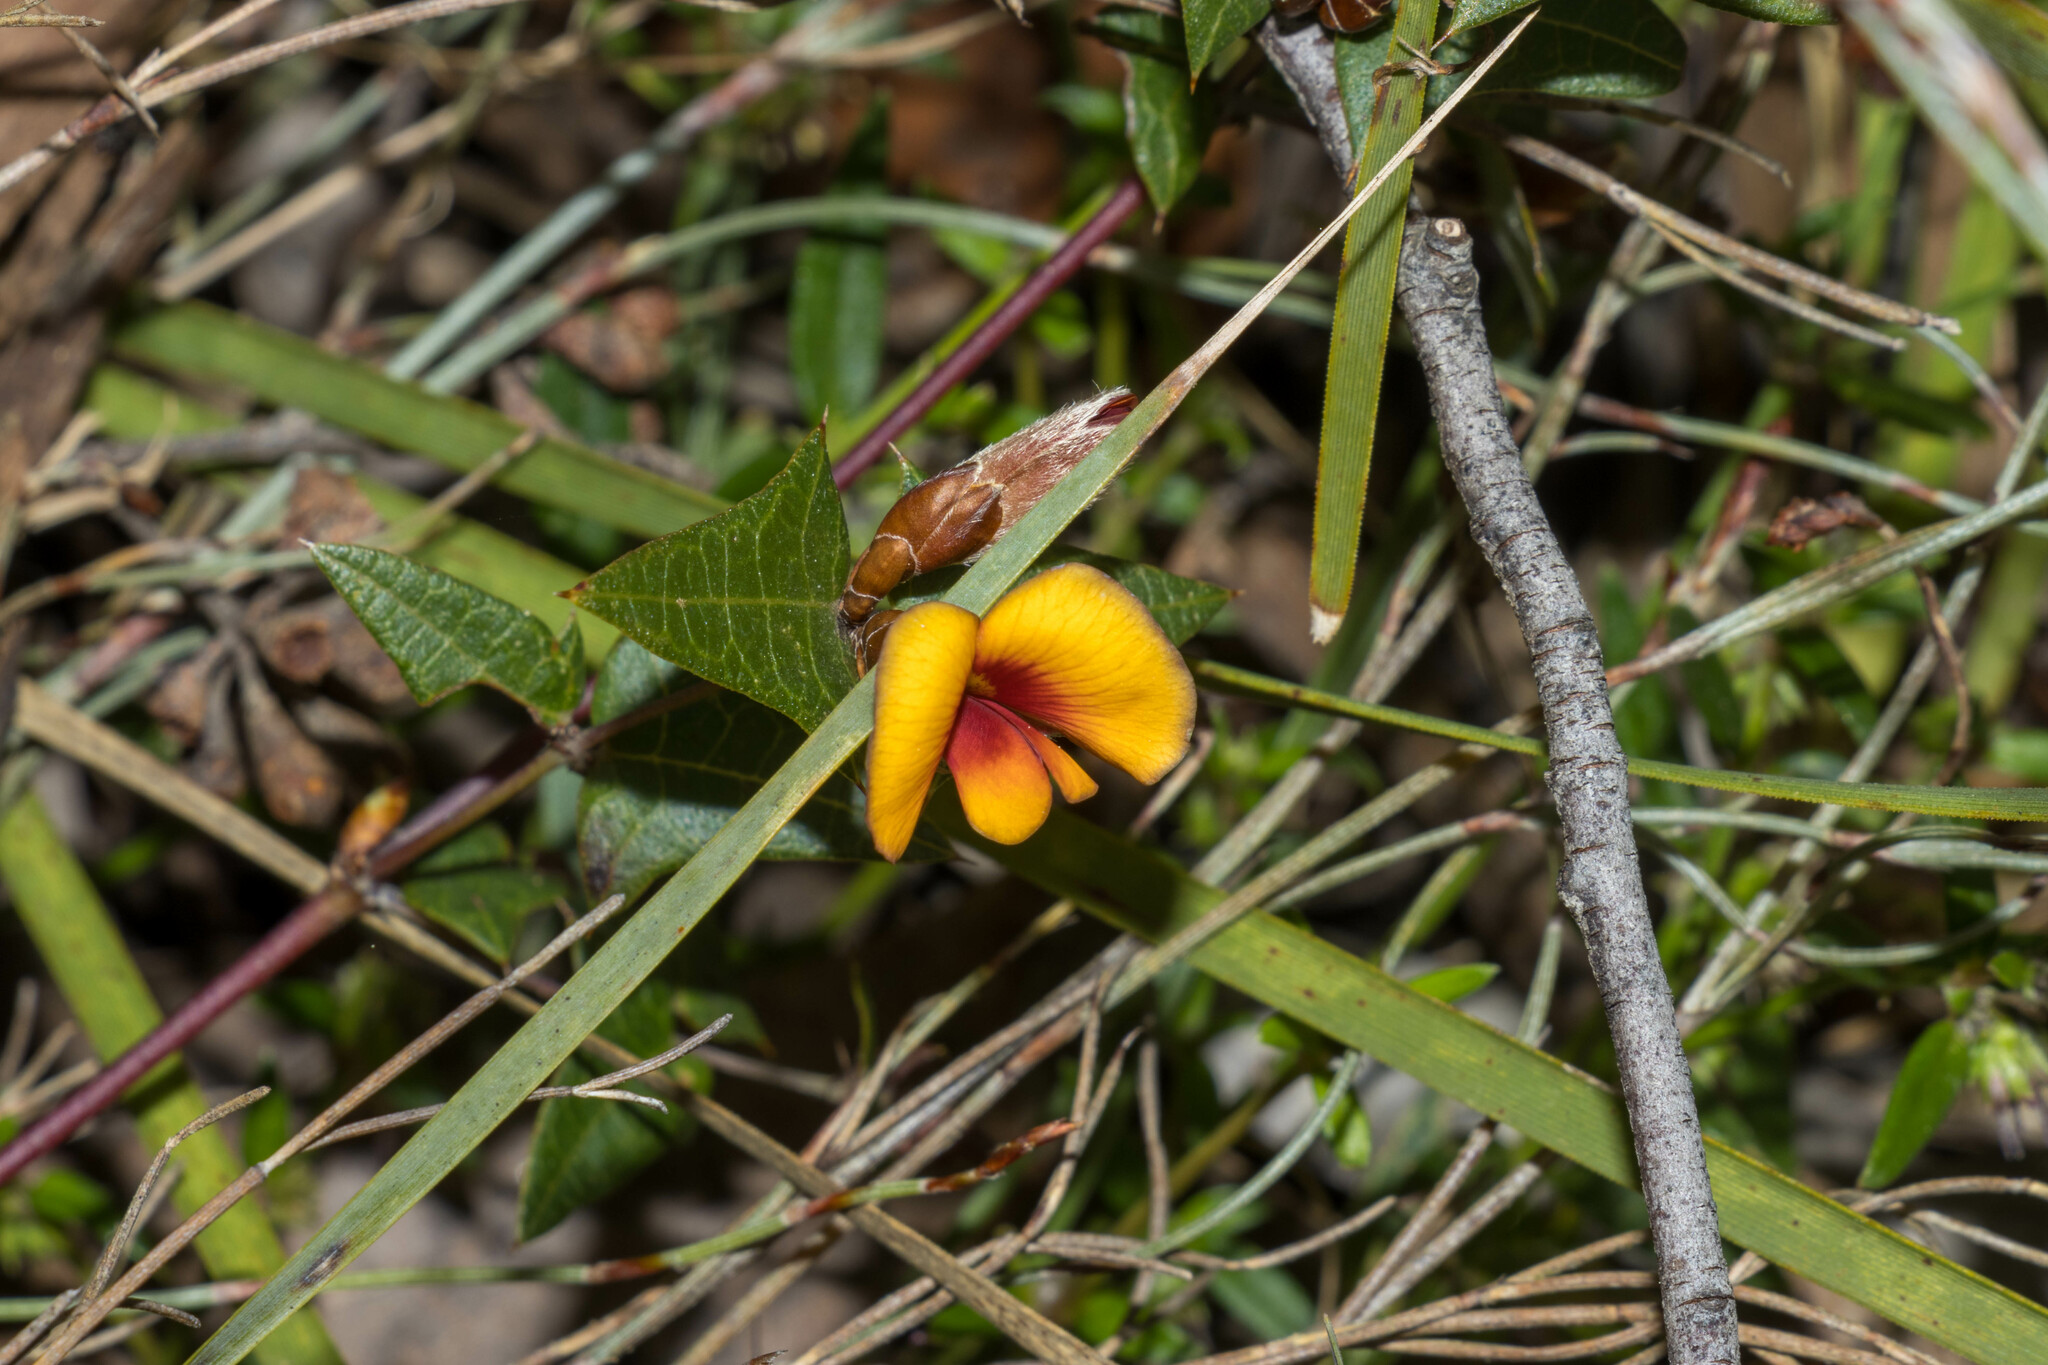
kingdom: Plantae
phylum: Tracheophyta
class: Magnoliopsida
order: Fabales
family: Fabaceae
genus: Platylobium
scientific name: Platylobium obtusangulum
